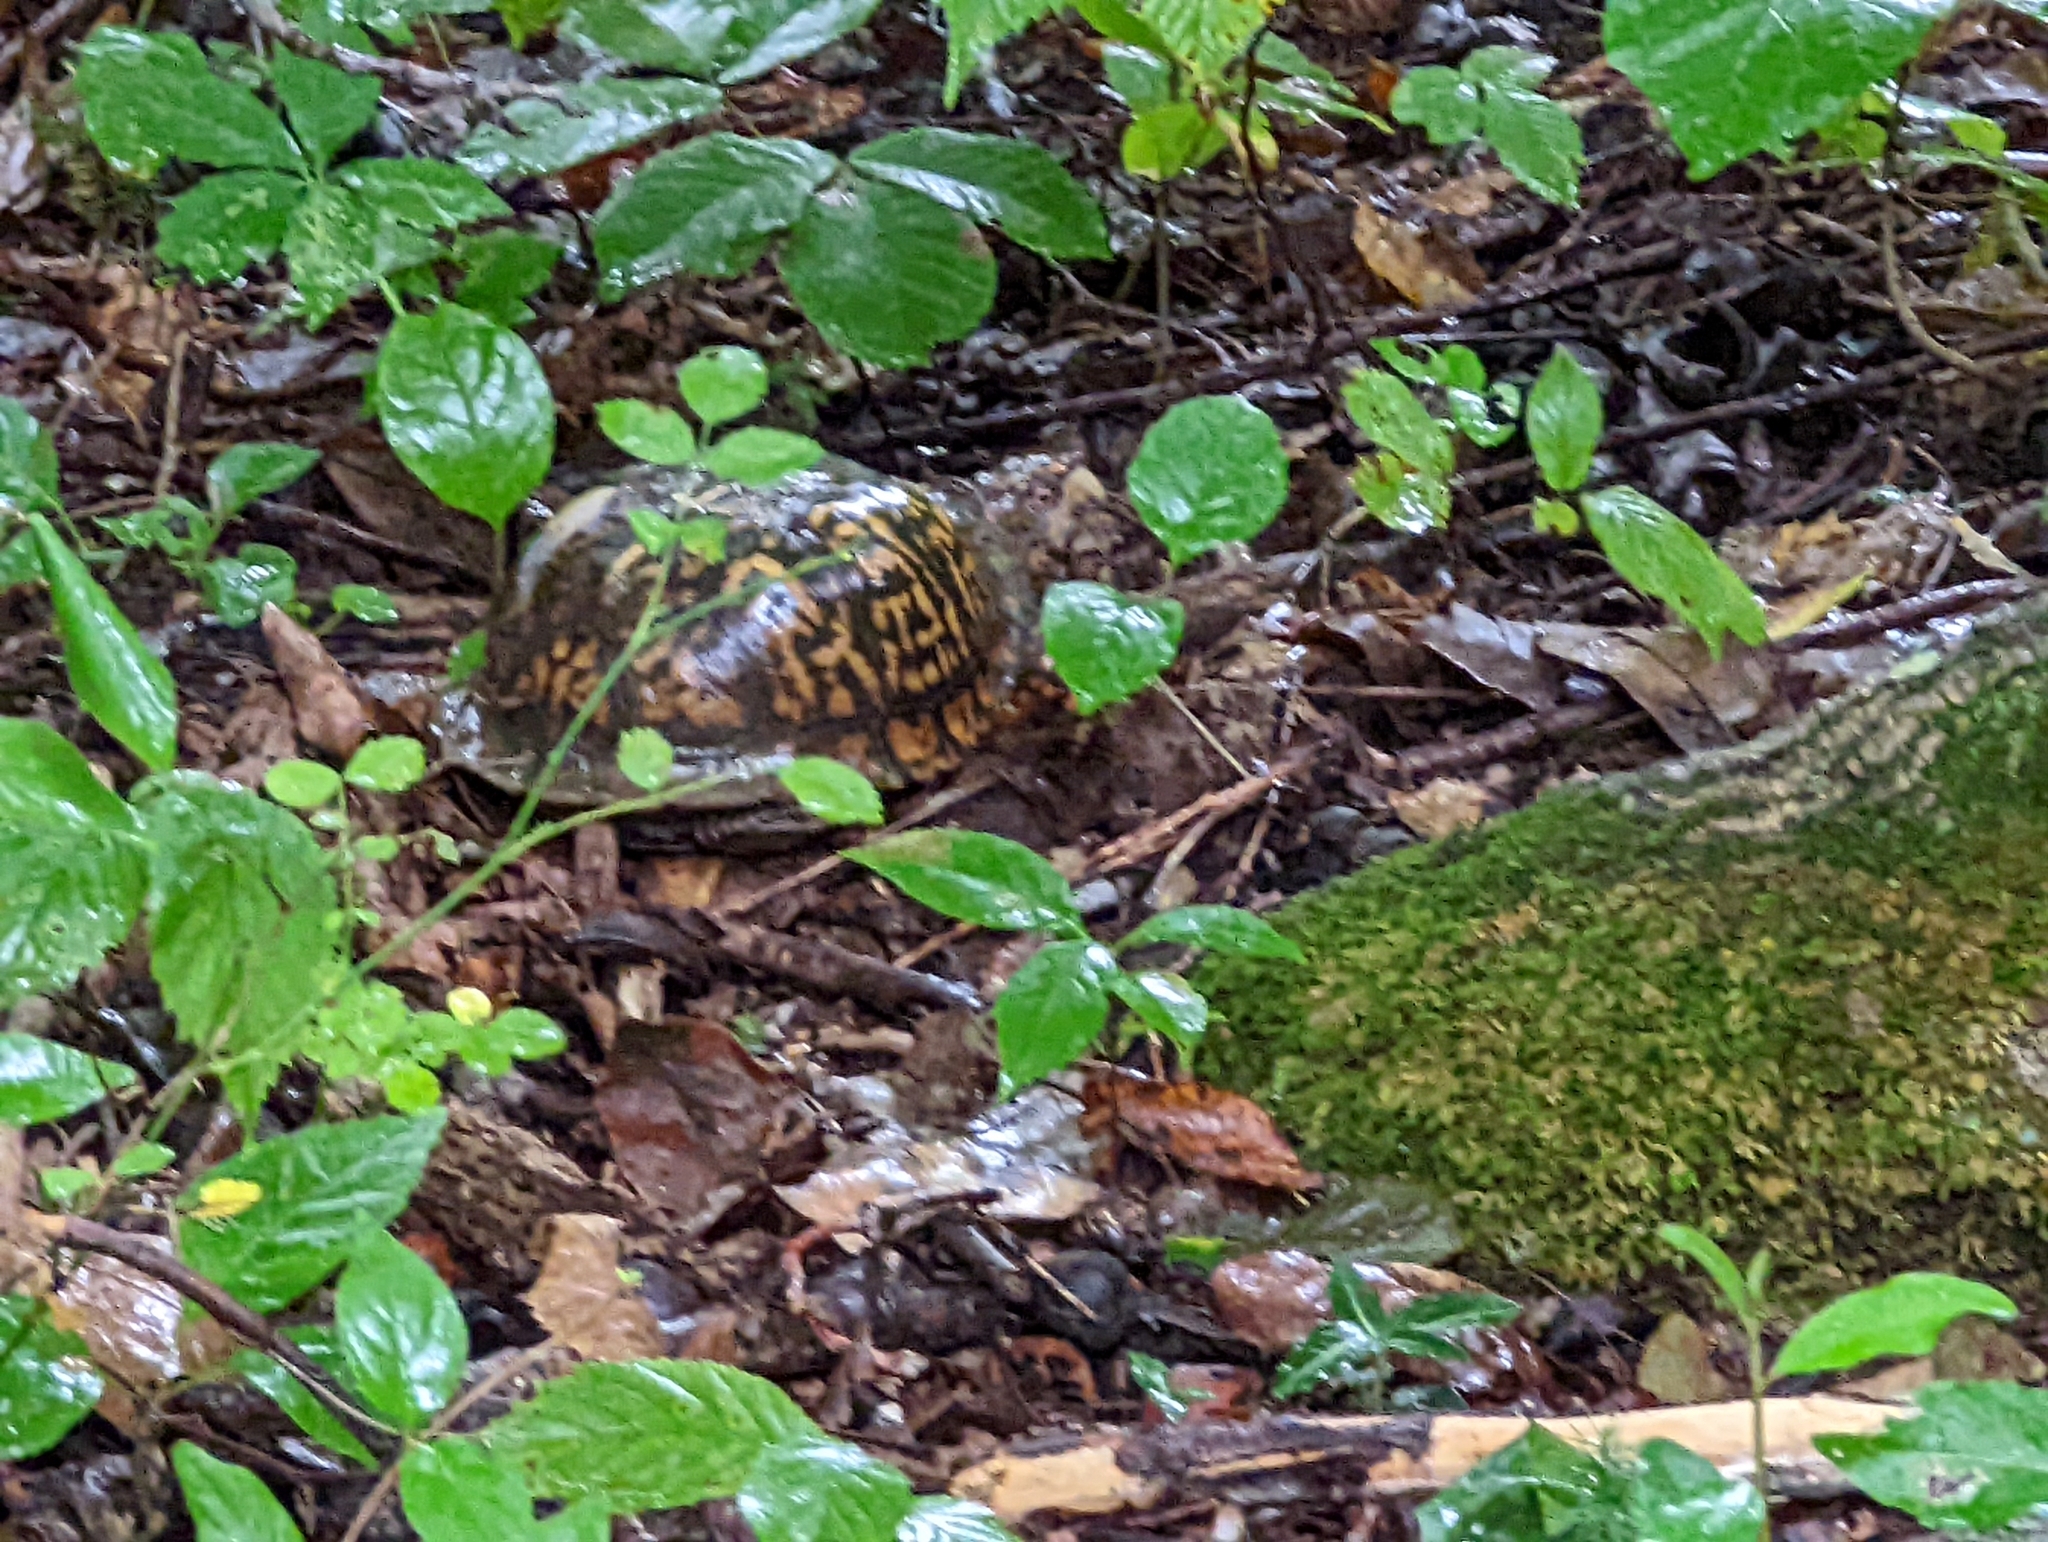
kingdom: Animalia
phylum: Chordata
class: Testudines
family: Emydidae
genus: Terrapene
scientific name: Terrapene carolina
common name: Common box turtle
